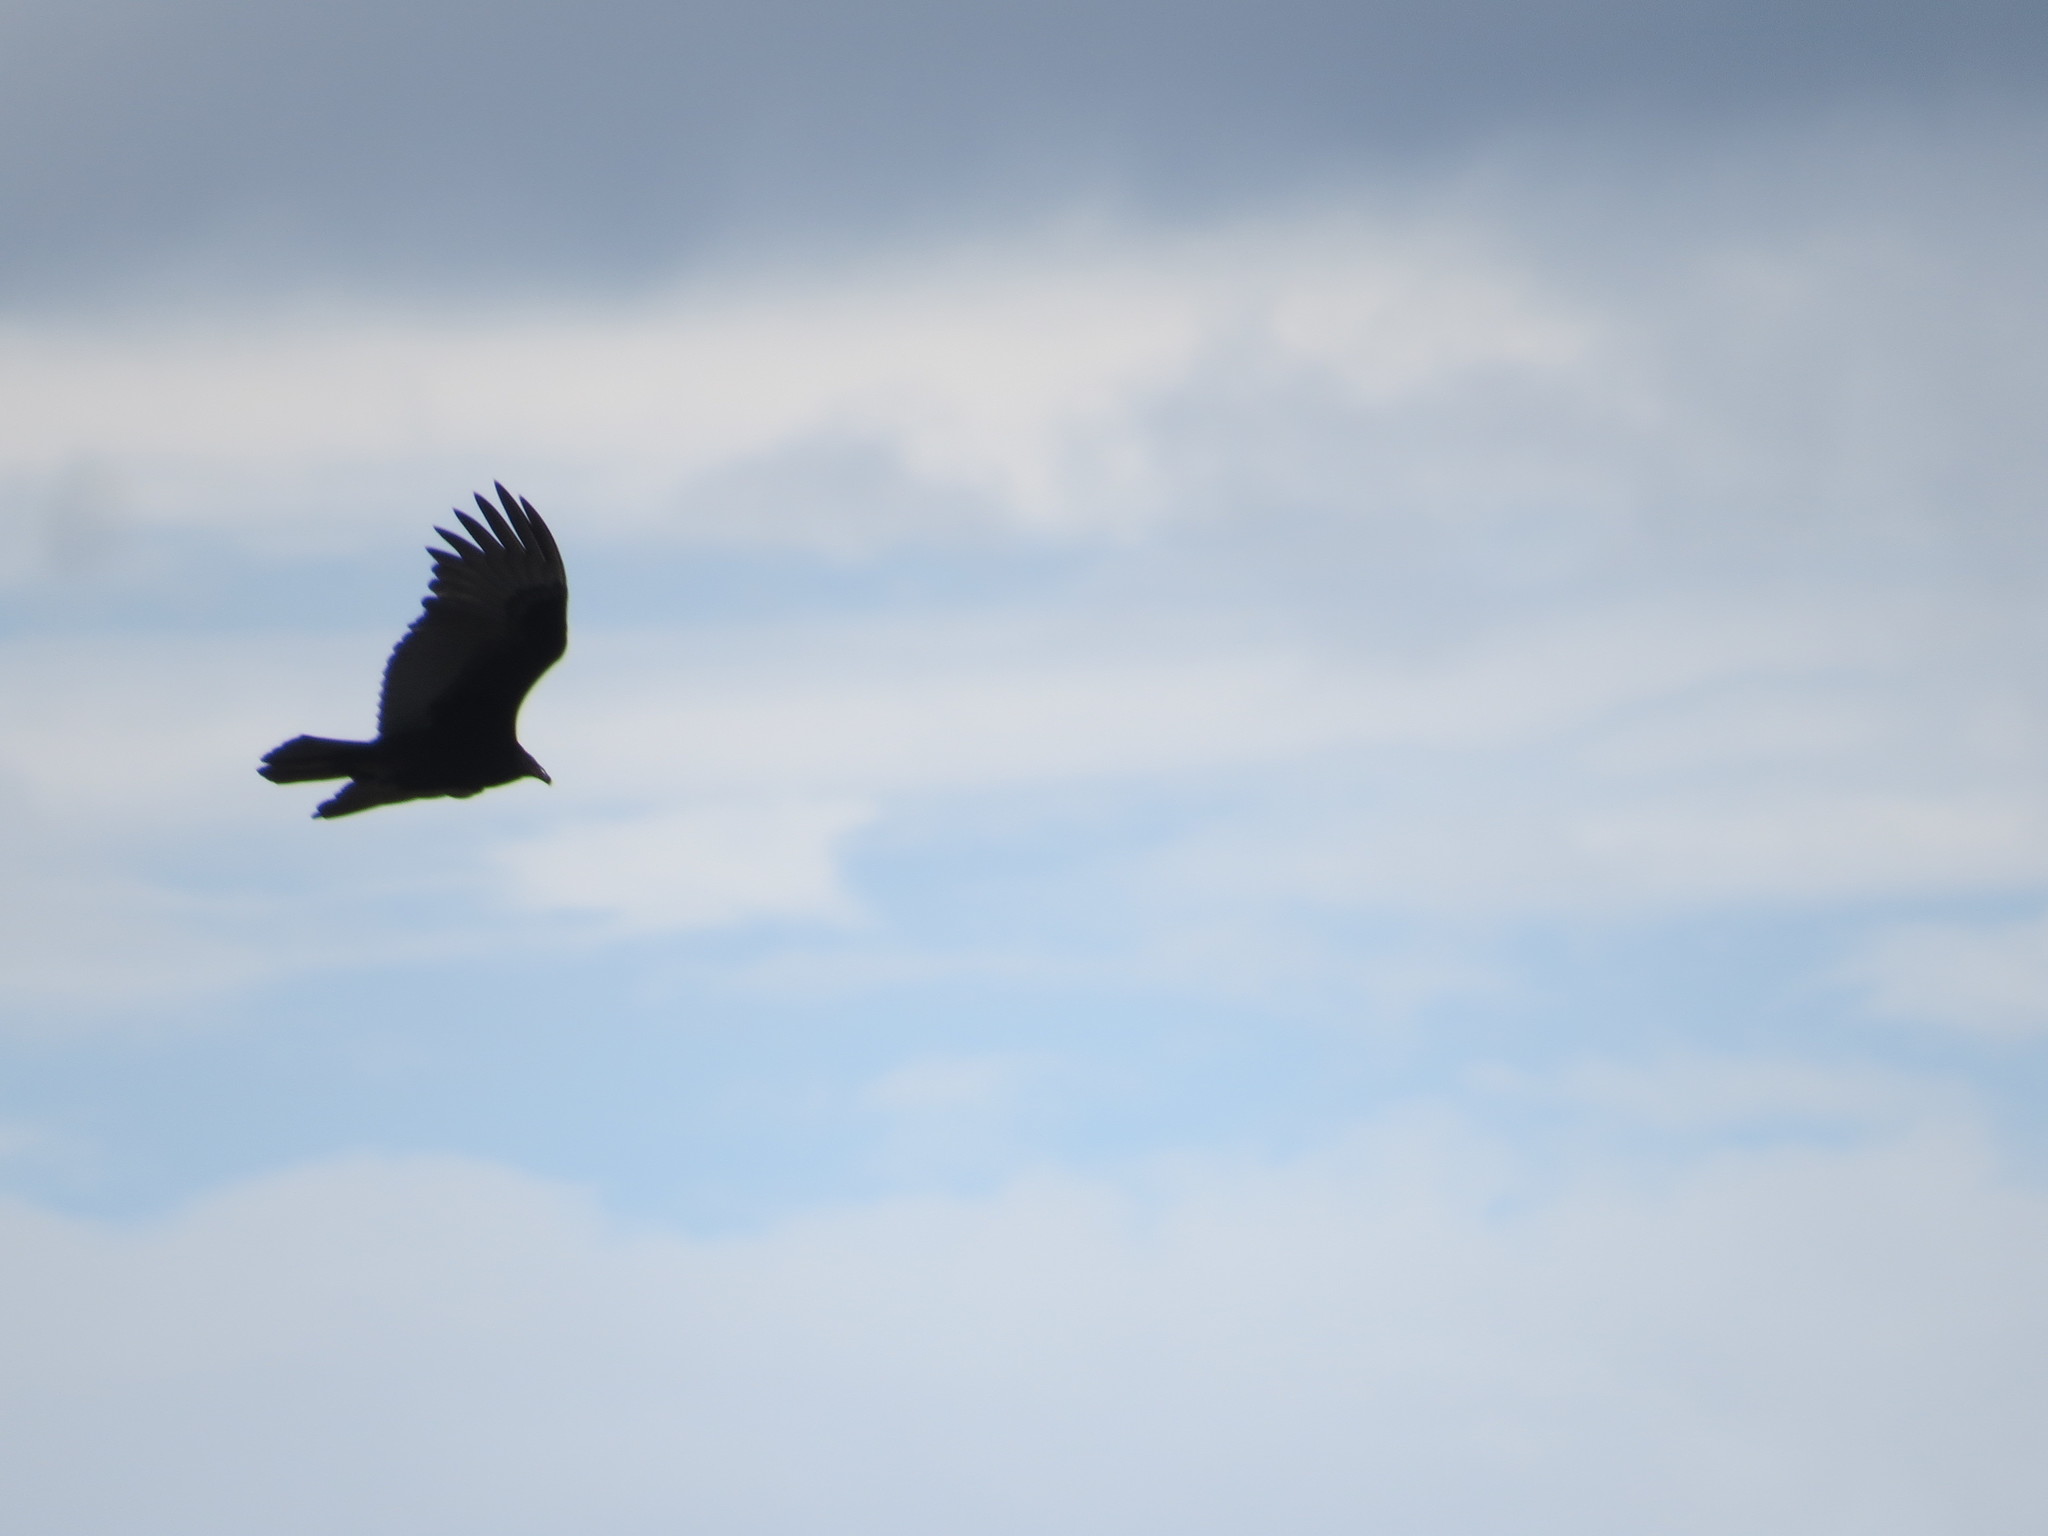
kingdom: Animalia
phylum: Chordata
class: Aves
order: Accipitriformes
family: Cathartidae
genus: Cathartes
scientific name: Cathartes aura
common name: Turkey vulture
